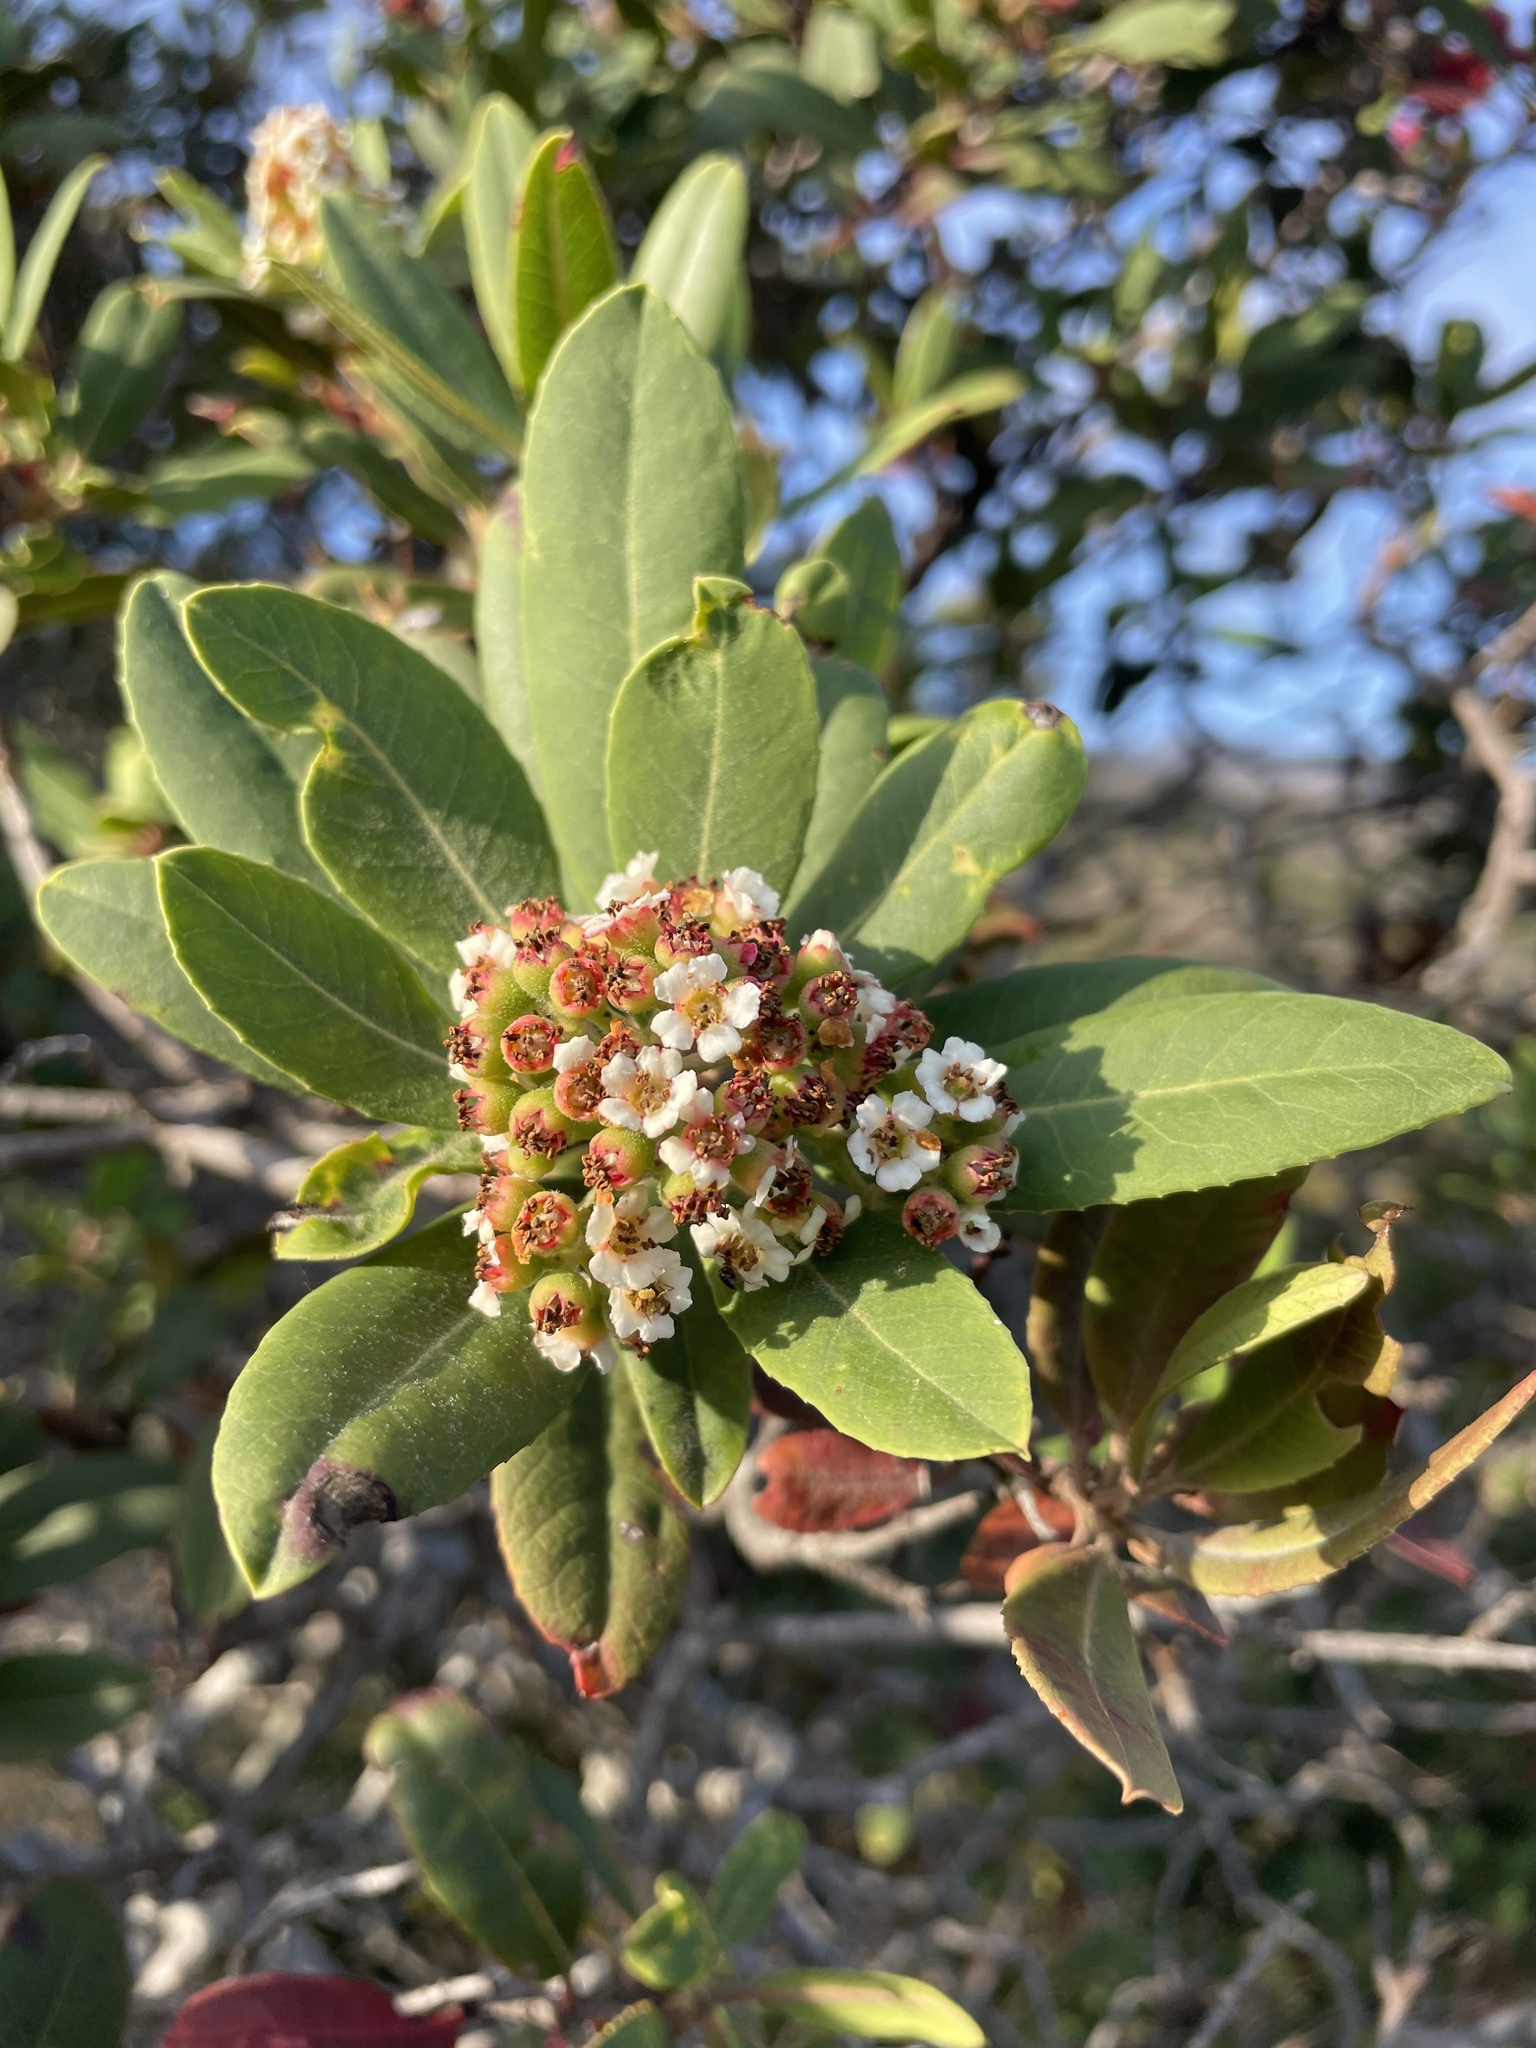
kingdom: Plantae
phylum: Tracheophyta
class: Magnoliopsida
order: Rosales
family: Rosaceae
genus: Heteromeles
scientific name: Heteromeles arbutifolia
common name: California-holly
